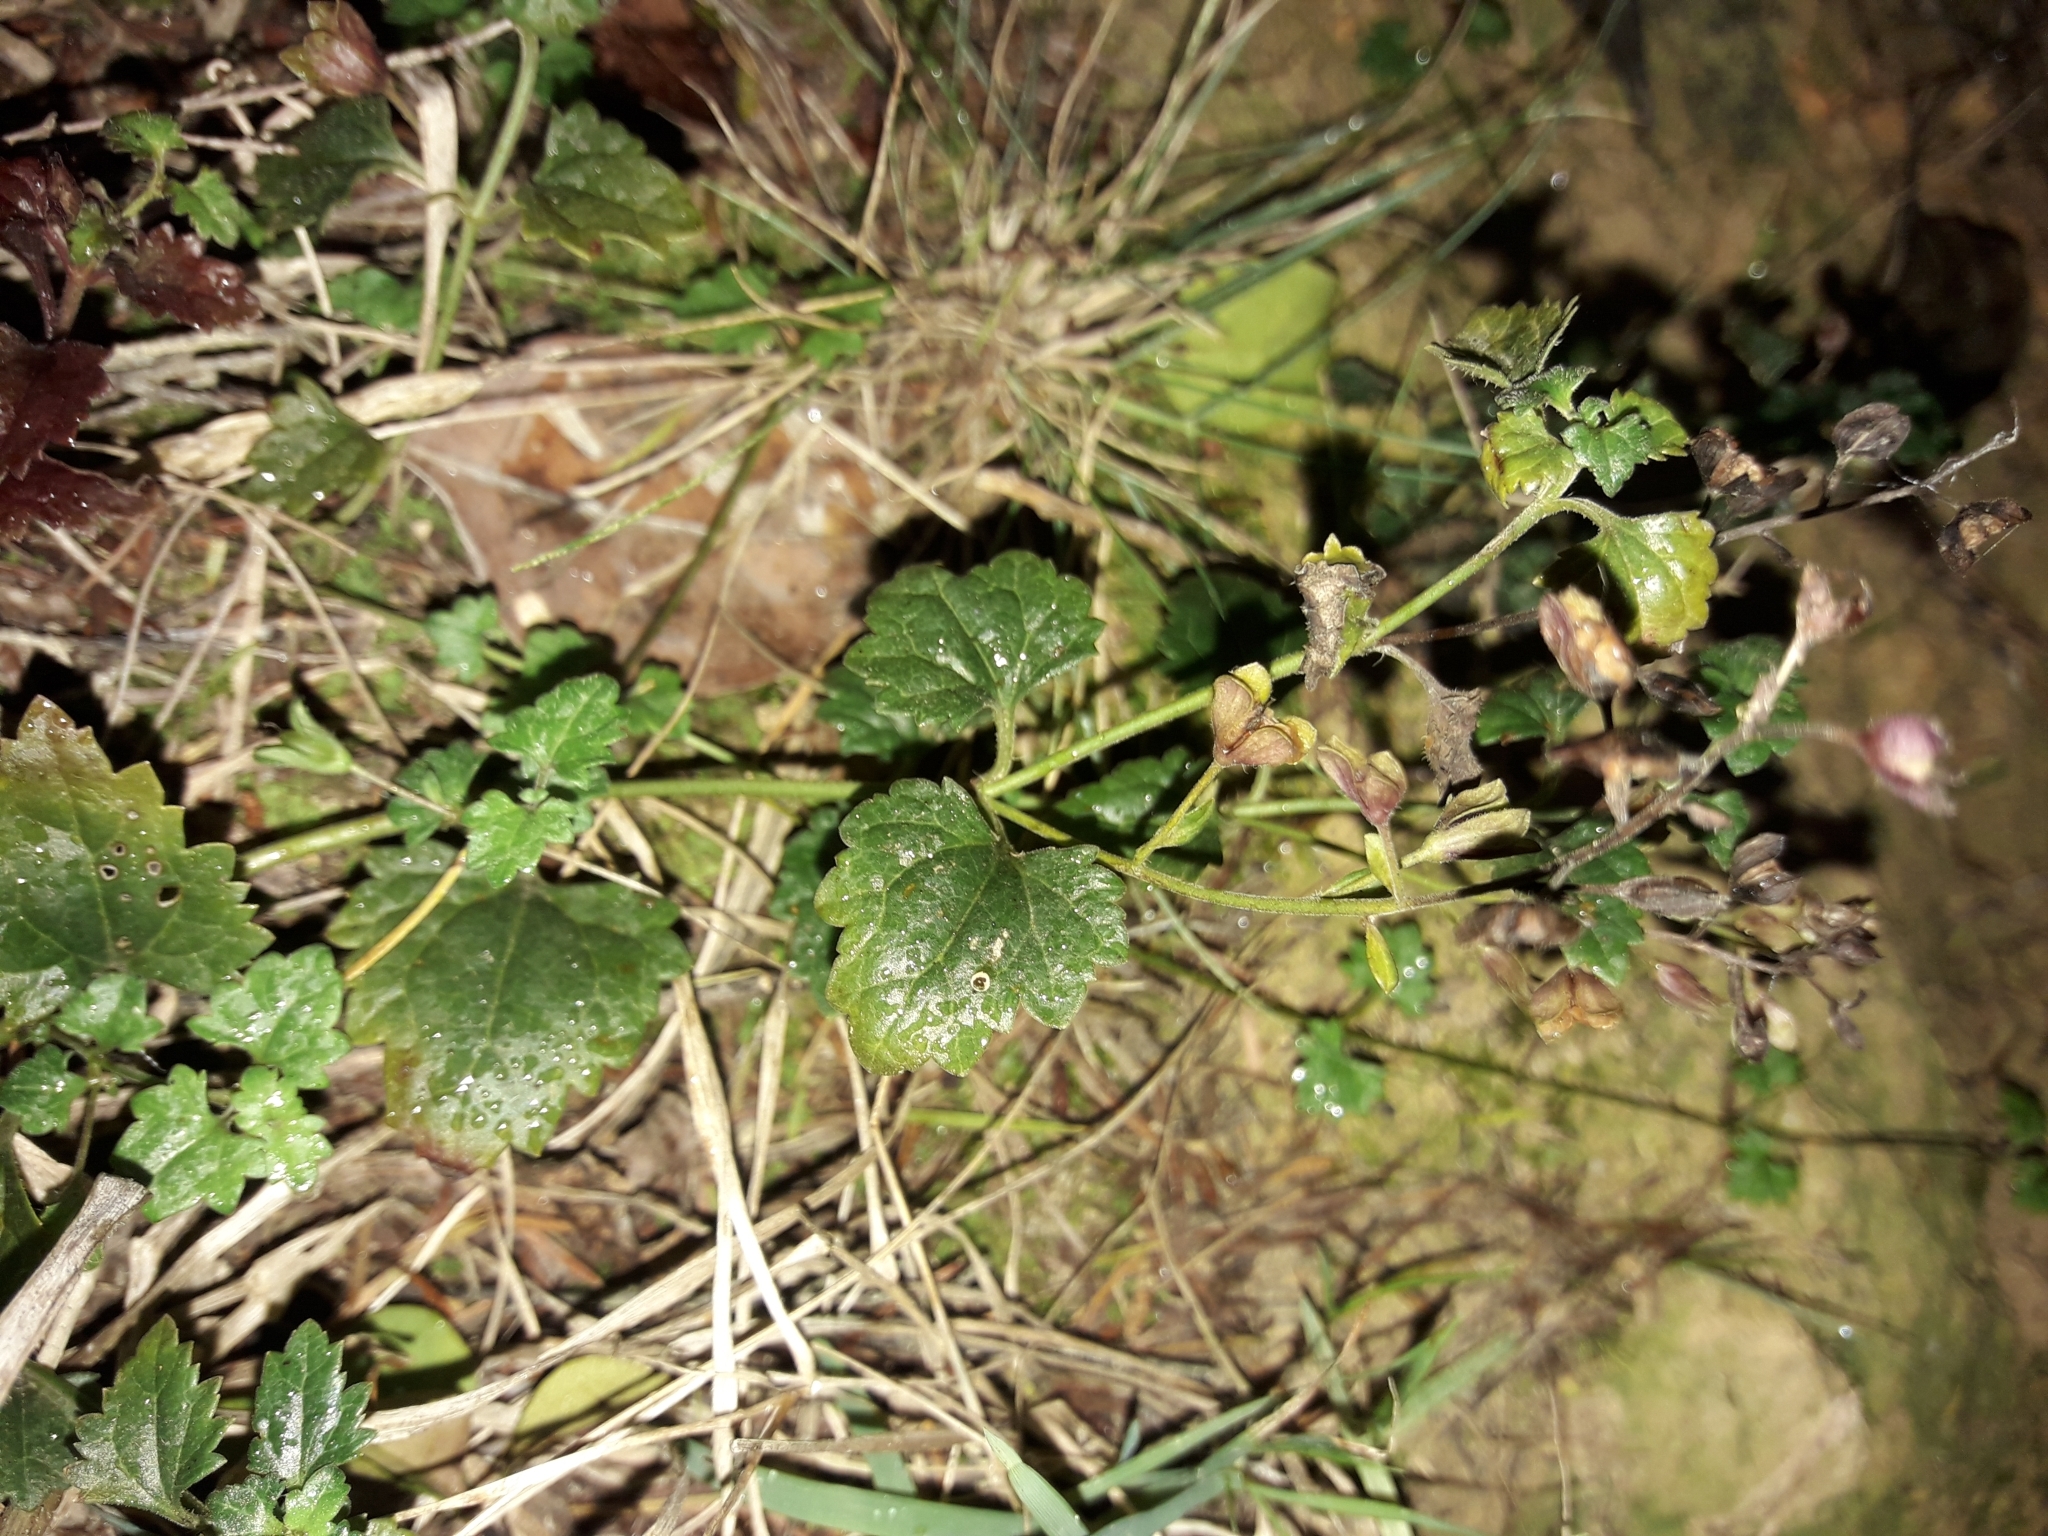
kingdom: Plantae
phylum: Tracheophyta
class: Magnoliopsida
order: Lamiales
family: Plantaginaceae
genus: Veronica
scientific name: Veronica plebeia
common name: Speedwell
